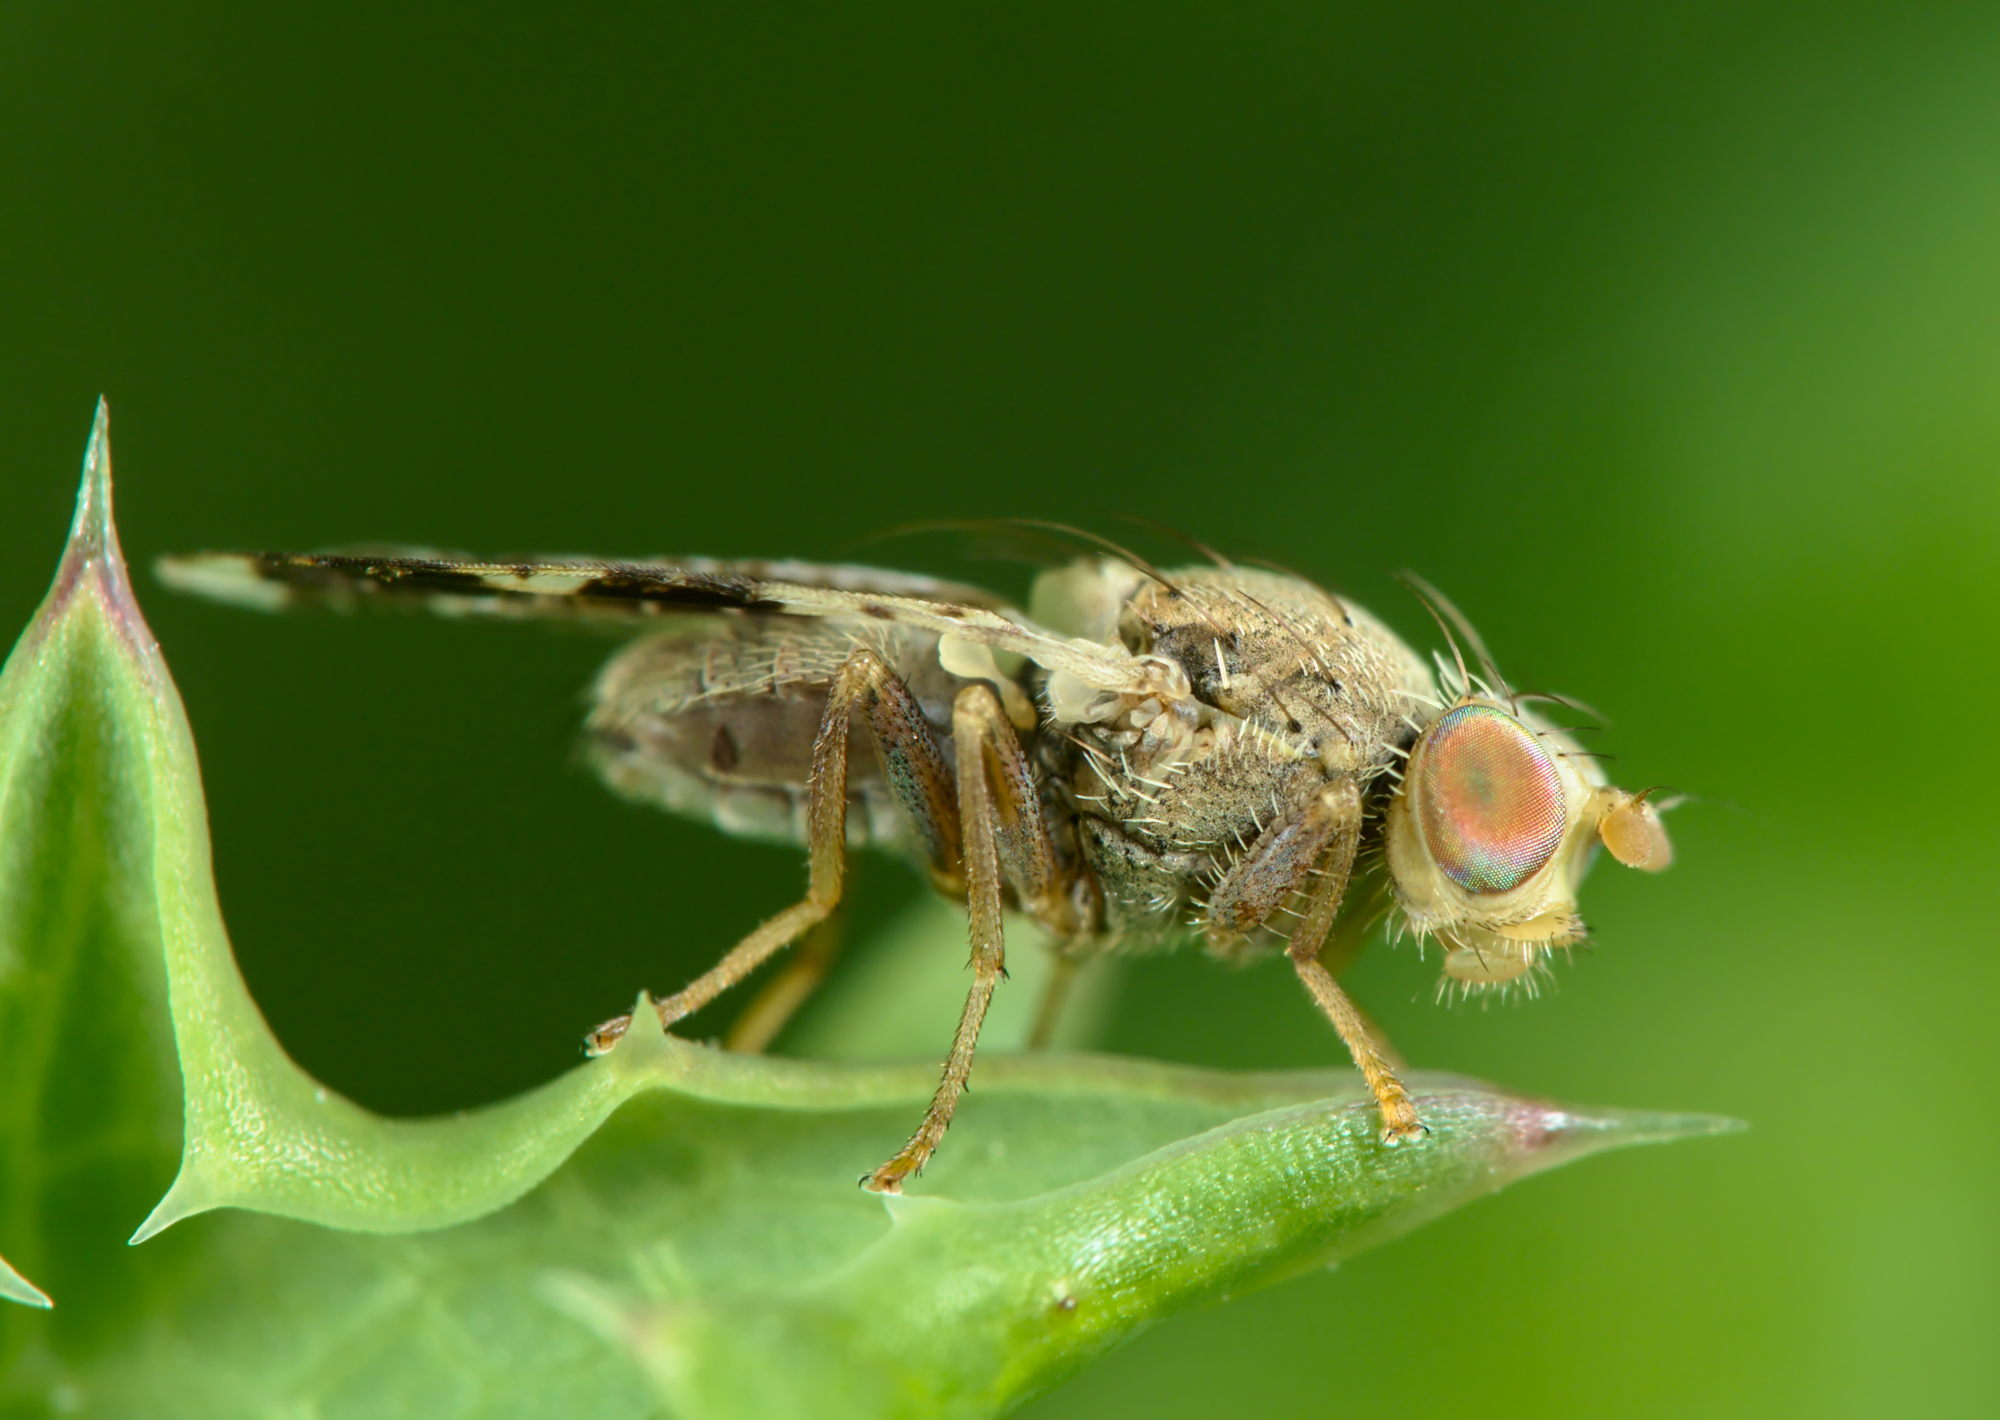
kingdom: Animalia
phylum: Arthropoda
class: Insecta
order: Diptera
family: Tephritidae
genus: Tephritis
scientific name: Tephritis formosa
